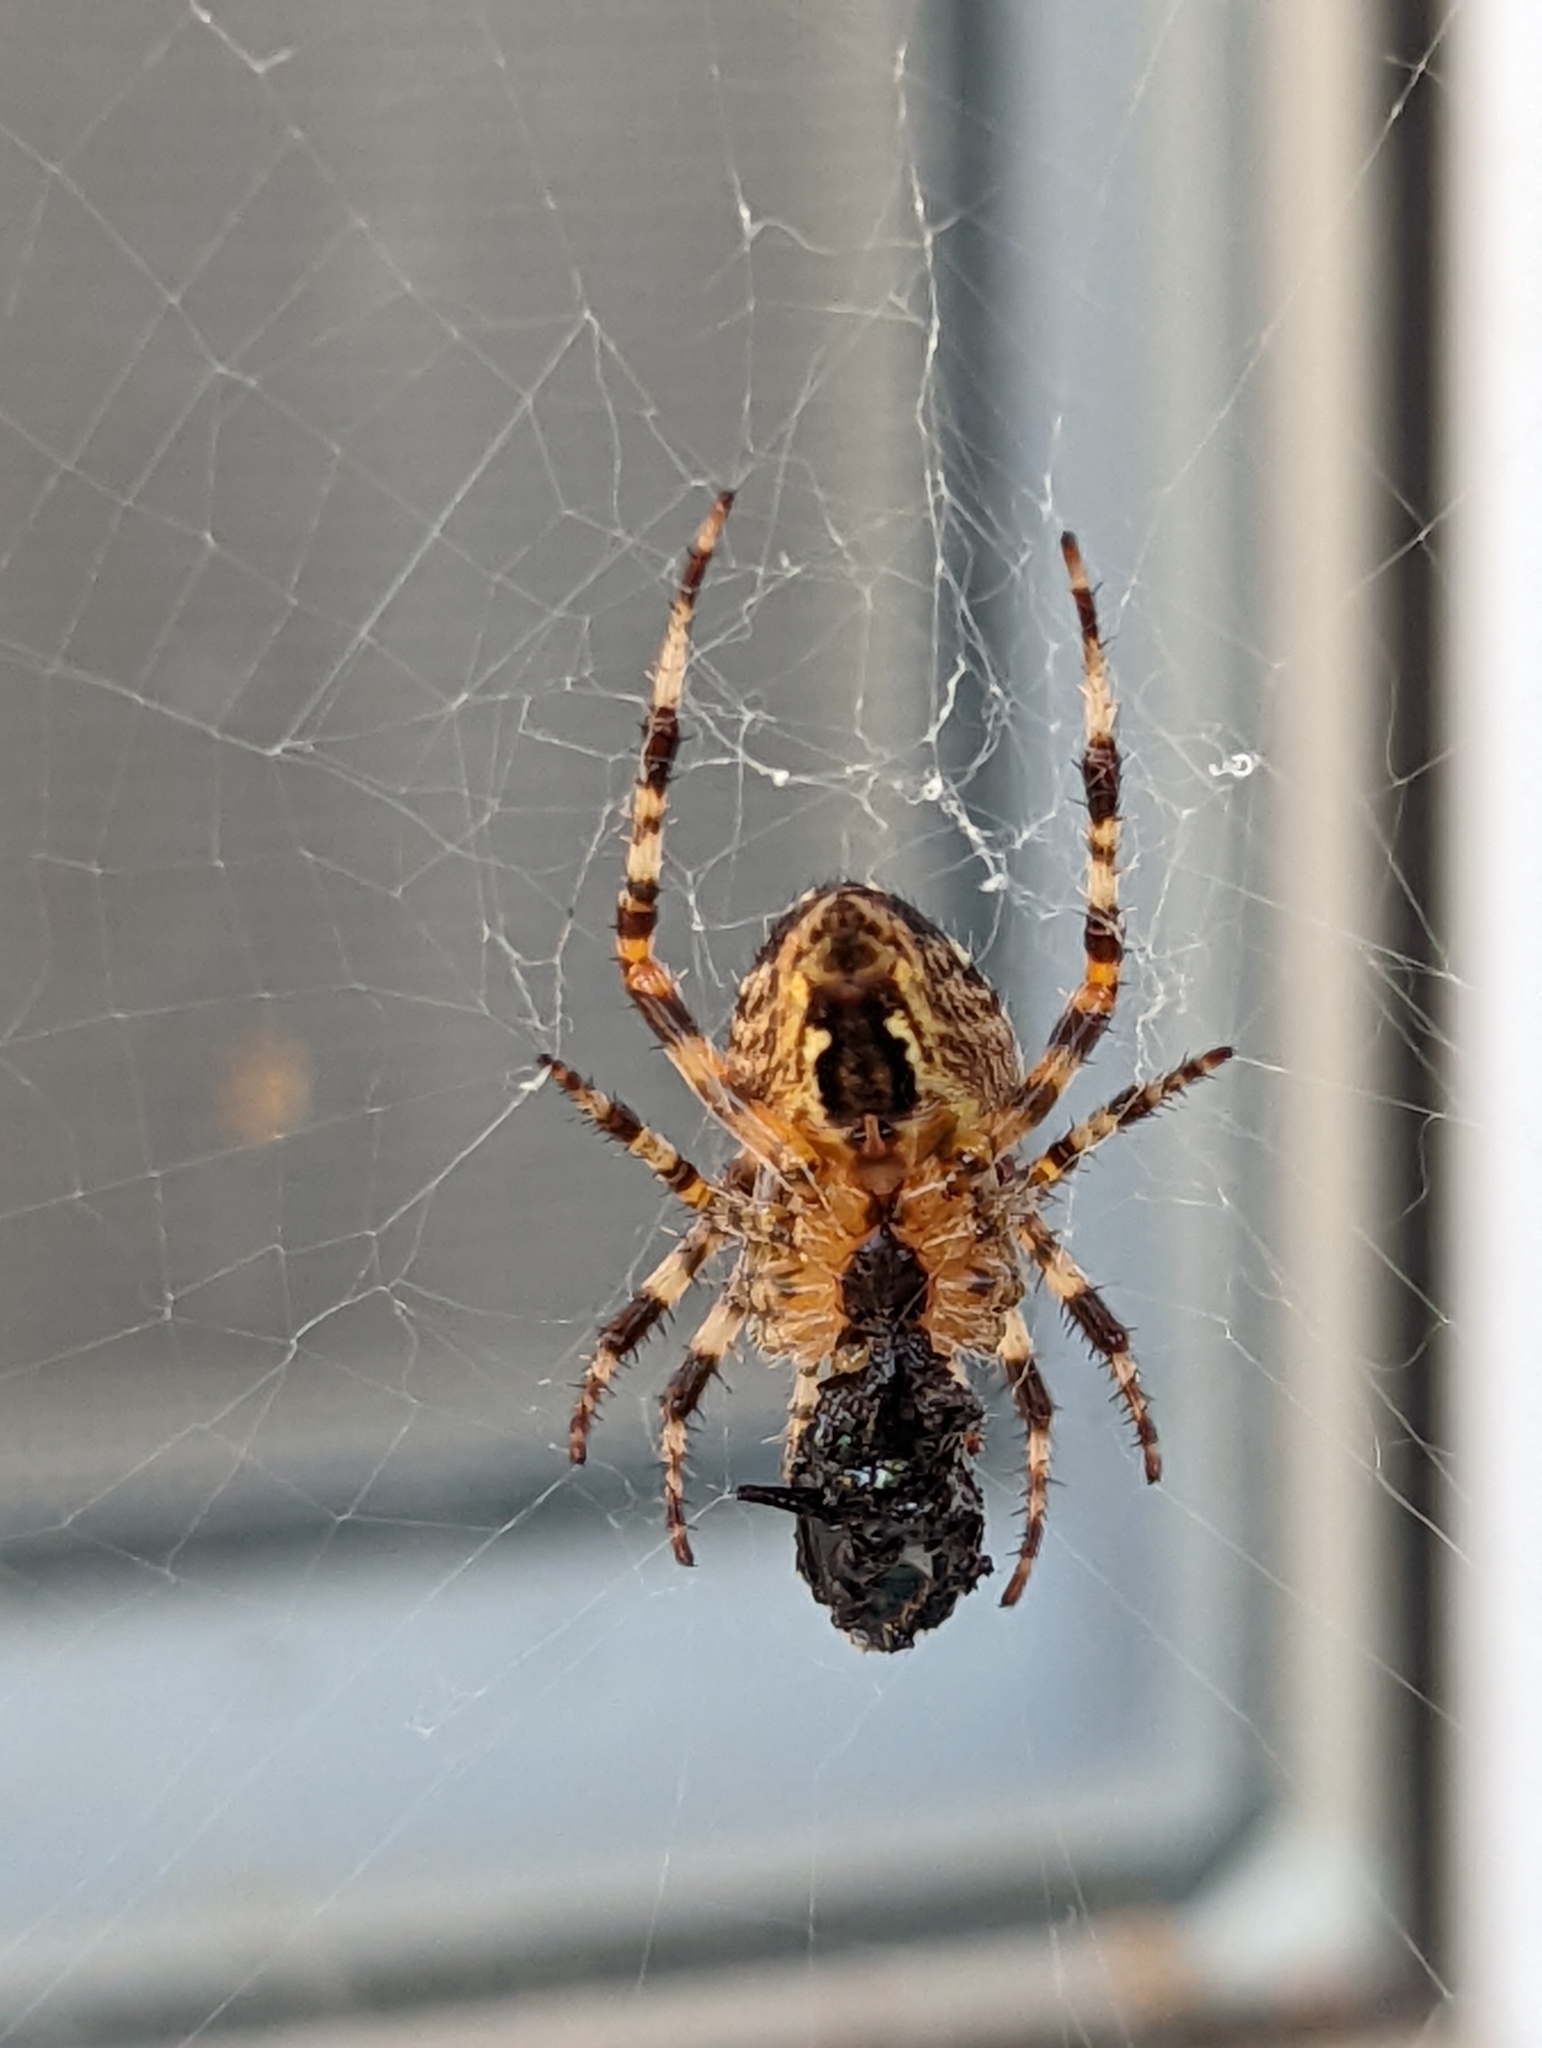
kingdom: Animalia
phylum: Arthropoda
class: Arachnida
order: Araneae
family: Araneidae
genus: Araneus
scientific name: Araneus diadematus
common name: Cross orbweaver
